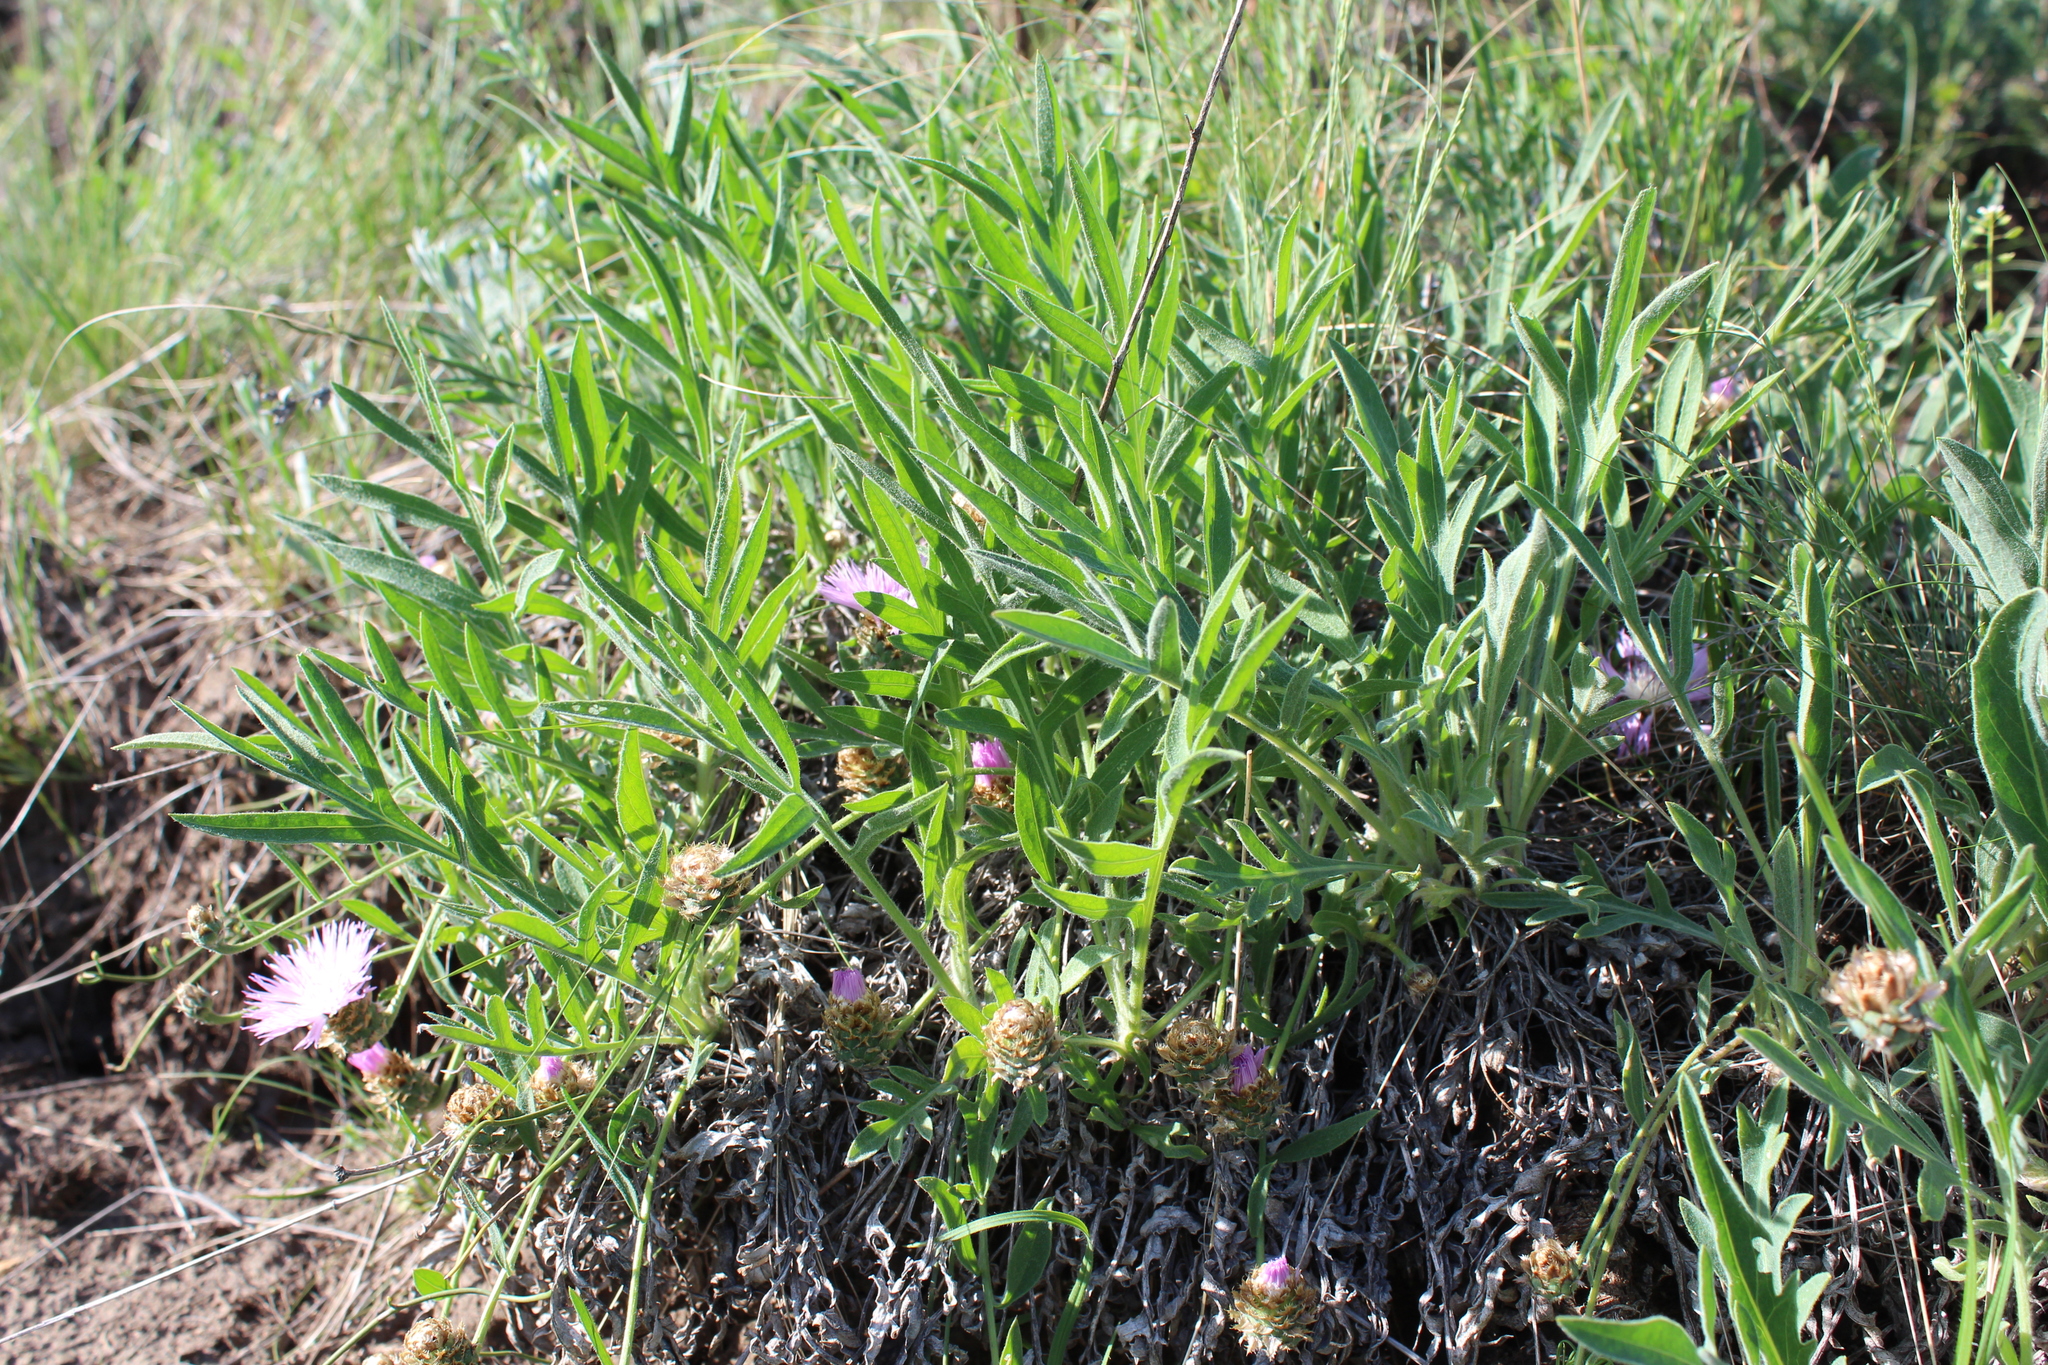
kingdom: Plantae
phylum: Tracheophyta
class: Magnoliopsida
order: Asterales
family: Asteraceae
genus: Psephellus
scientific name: Psephellus marschallianus
